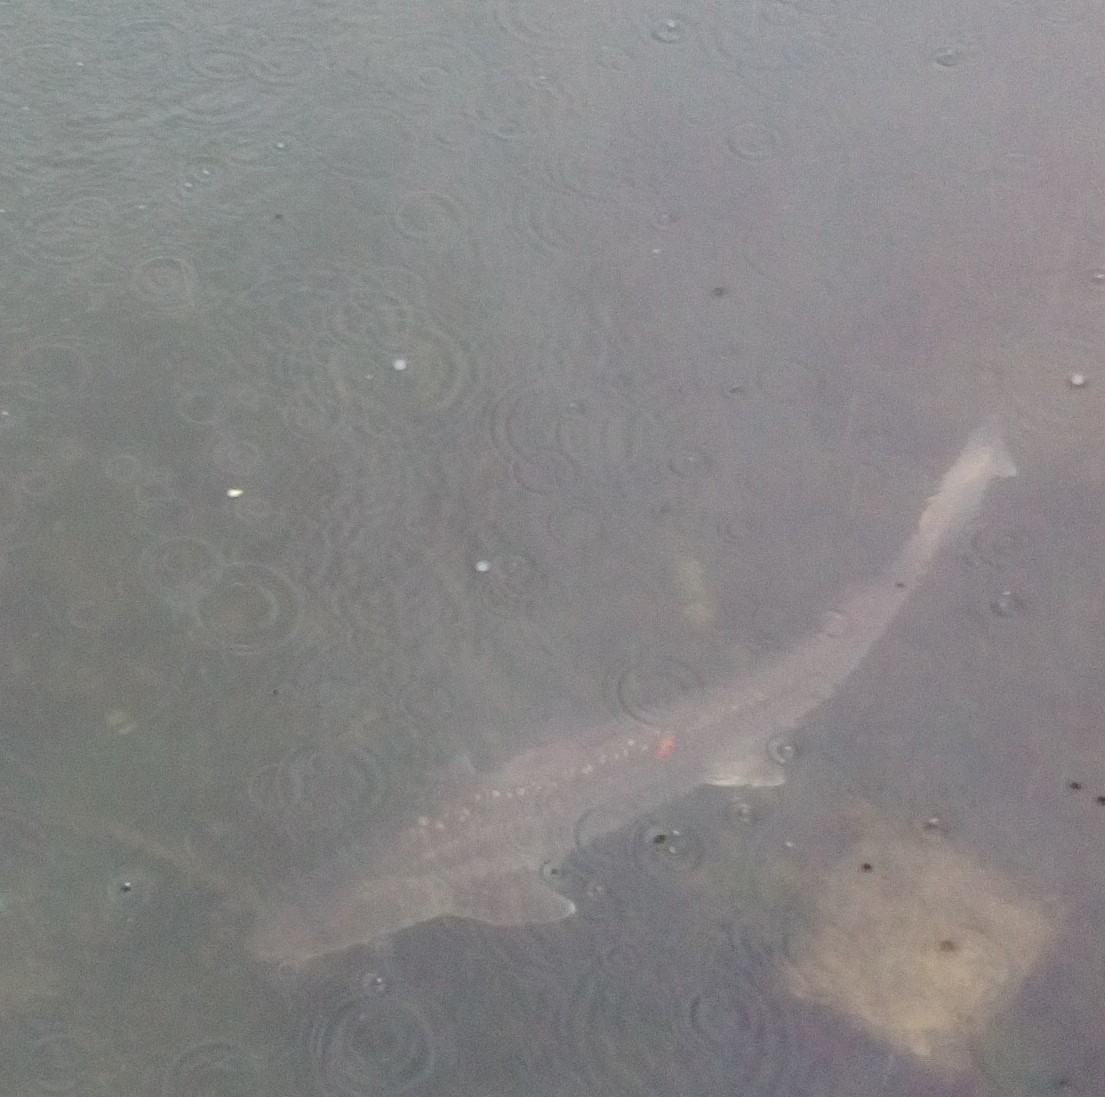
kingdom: Animalia
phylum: Chordata
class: Elasmobranchii
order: Carcharhiniformes
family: Triakidae
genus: Mustelus
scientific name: Mustelus lenticulatus
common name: Gummy shark
